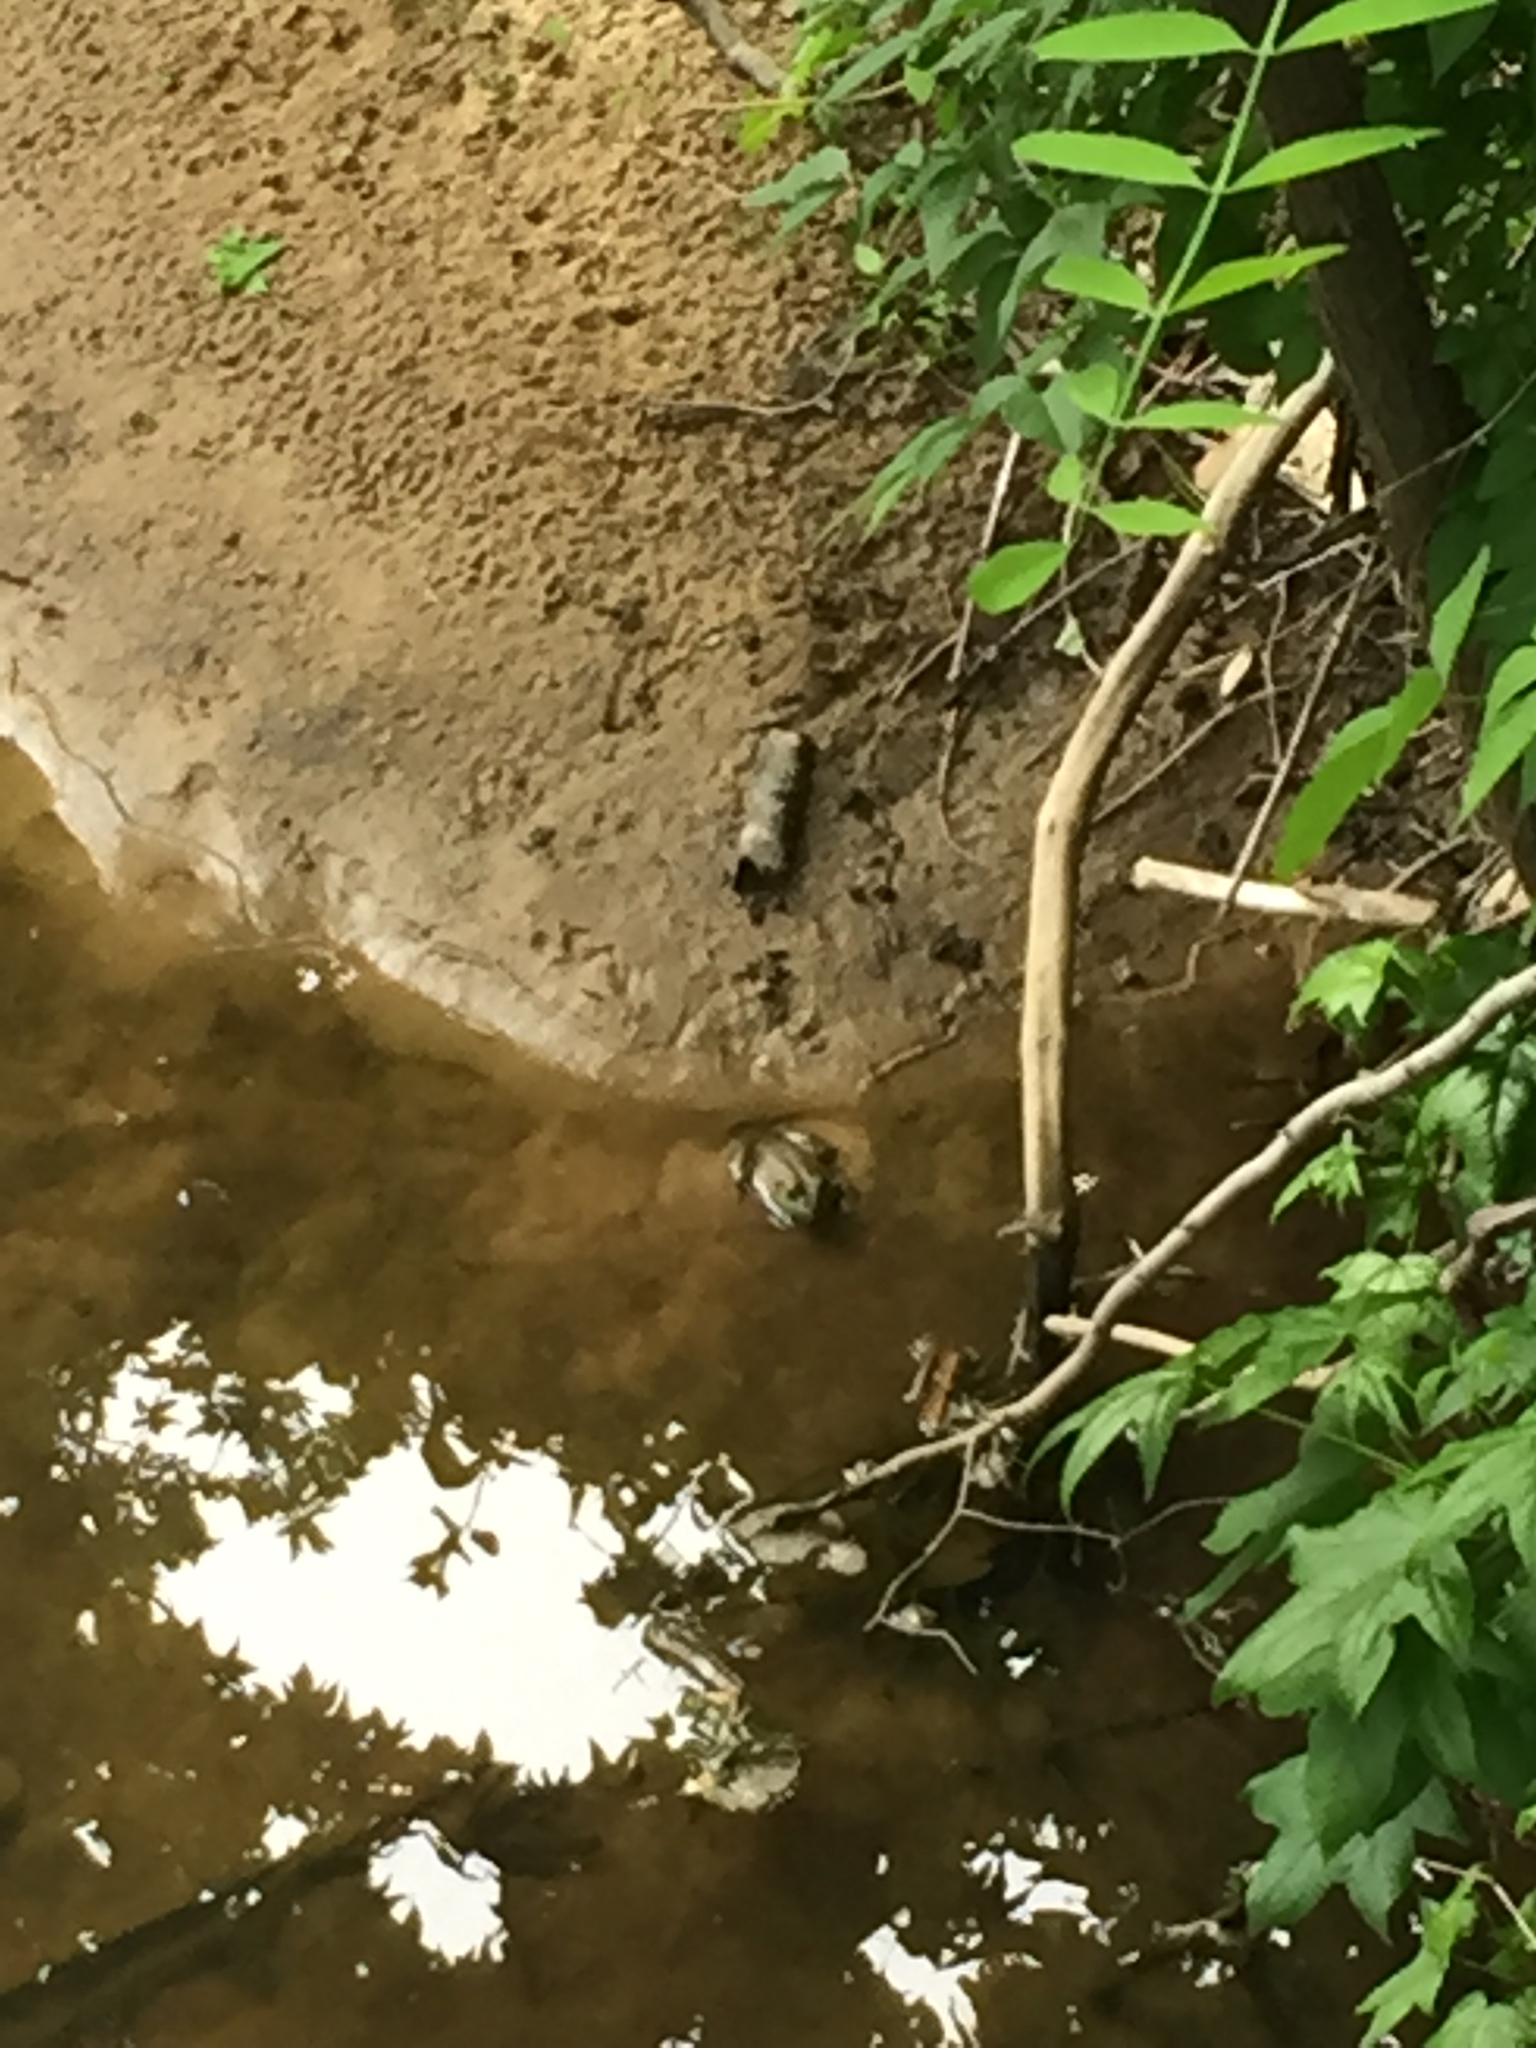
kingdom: Animalia
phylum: Chordata
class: Amphibia
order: Anura
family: Ranidae
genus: Lithobates
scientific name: Lithobates catesbeianus
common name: American bullfrog
